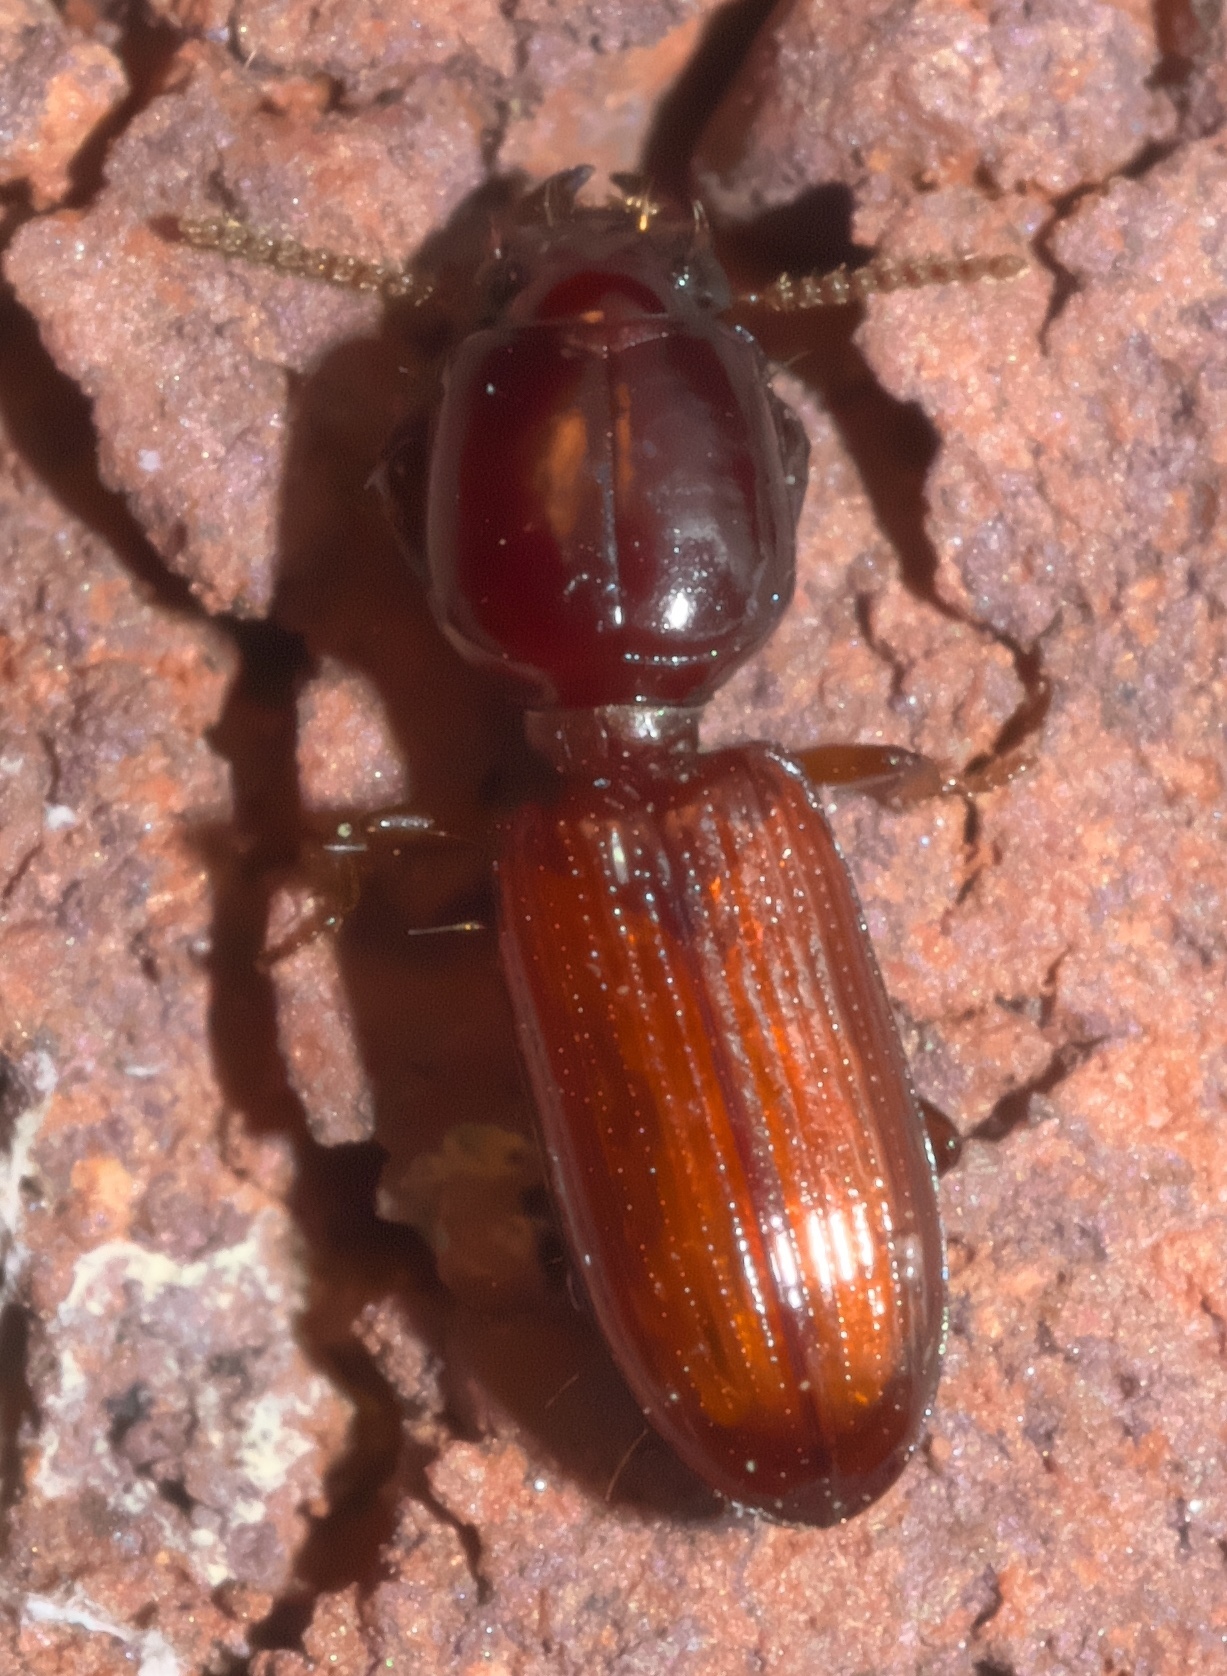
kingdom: Animalia
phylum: Arthropoda
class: Insecta
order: Coleoptera
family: Carabidae
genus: Clivina
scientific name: Clivina ferrea
